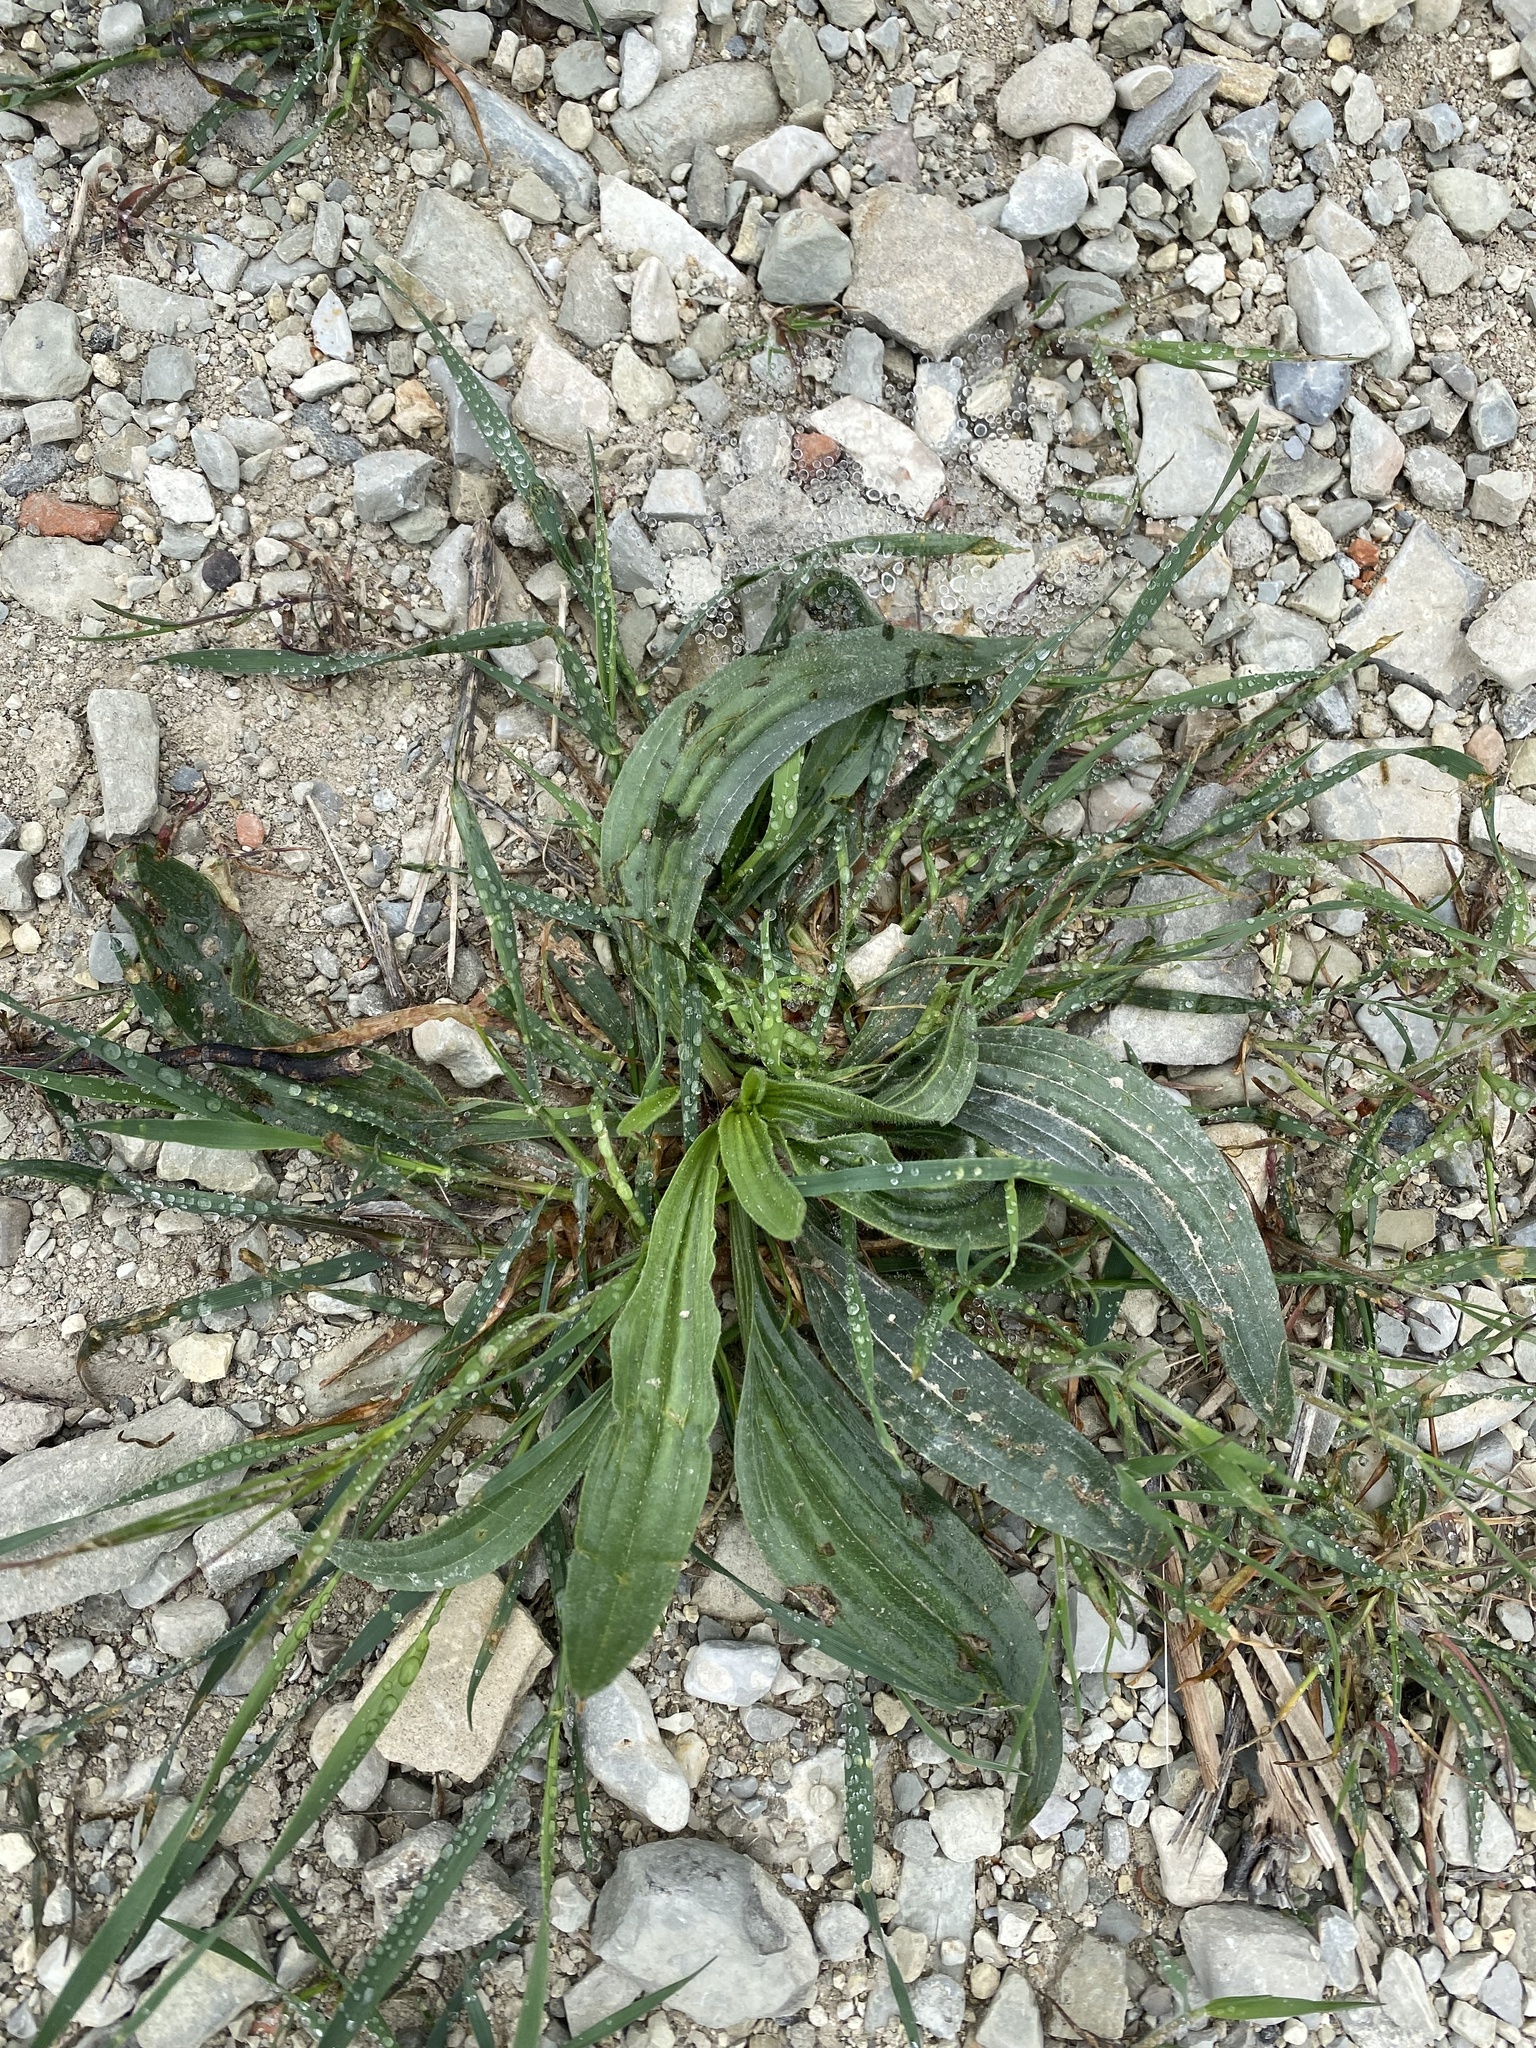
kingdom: Plantae
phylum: Tracheophyta
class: Magnoliopsida
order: Lamiales
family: Plantaginaceae
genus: Plantago
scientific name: Plantago lanceolata
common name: Ribwort plantain
